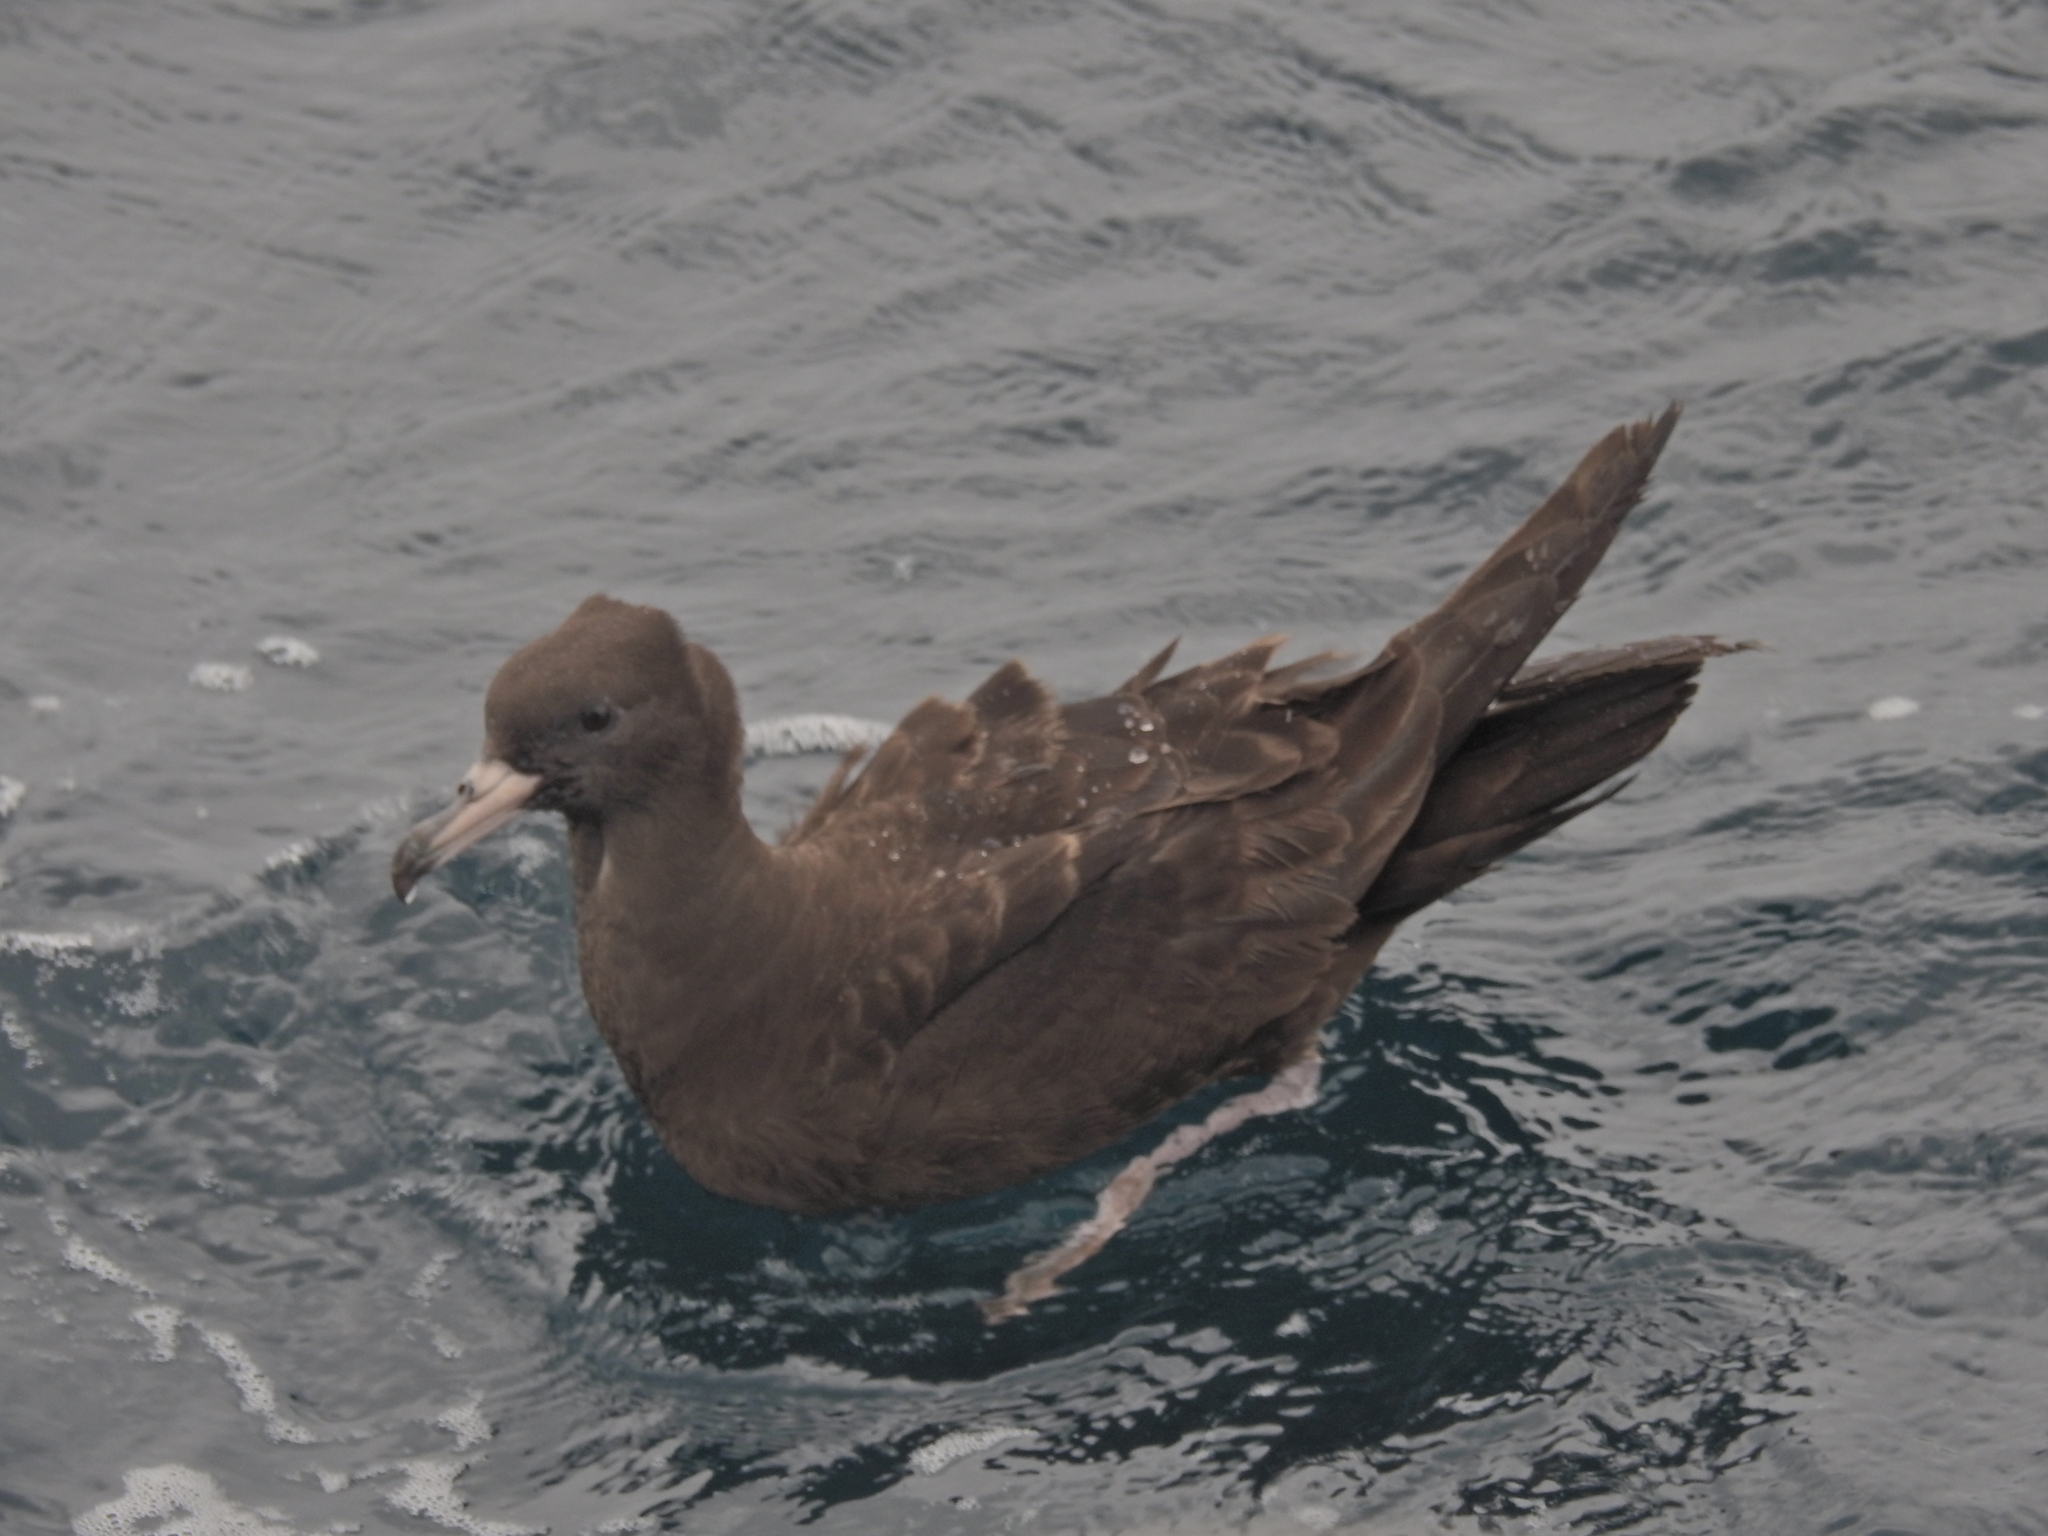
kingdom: Animalia
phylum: Chordata
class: Aves
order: Procellariiformes
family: Procellariidae
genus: Puffinus
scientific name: Puffinus carneipes
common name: Flesh-footed shearwater
